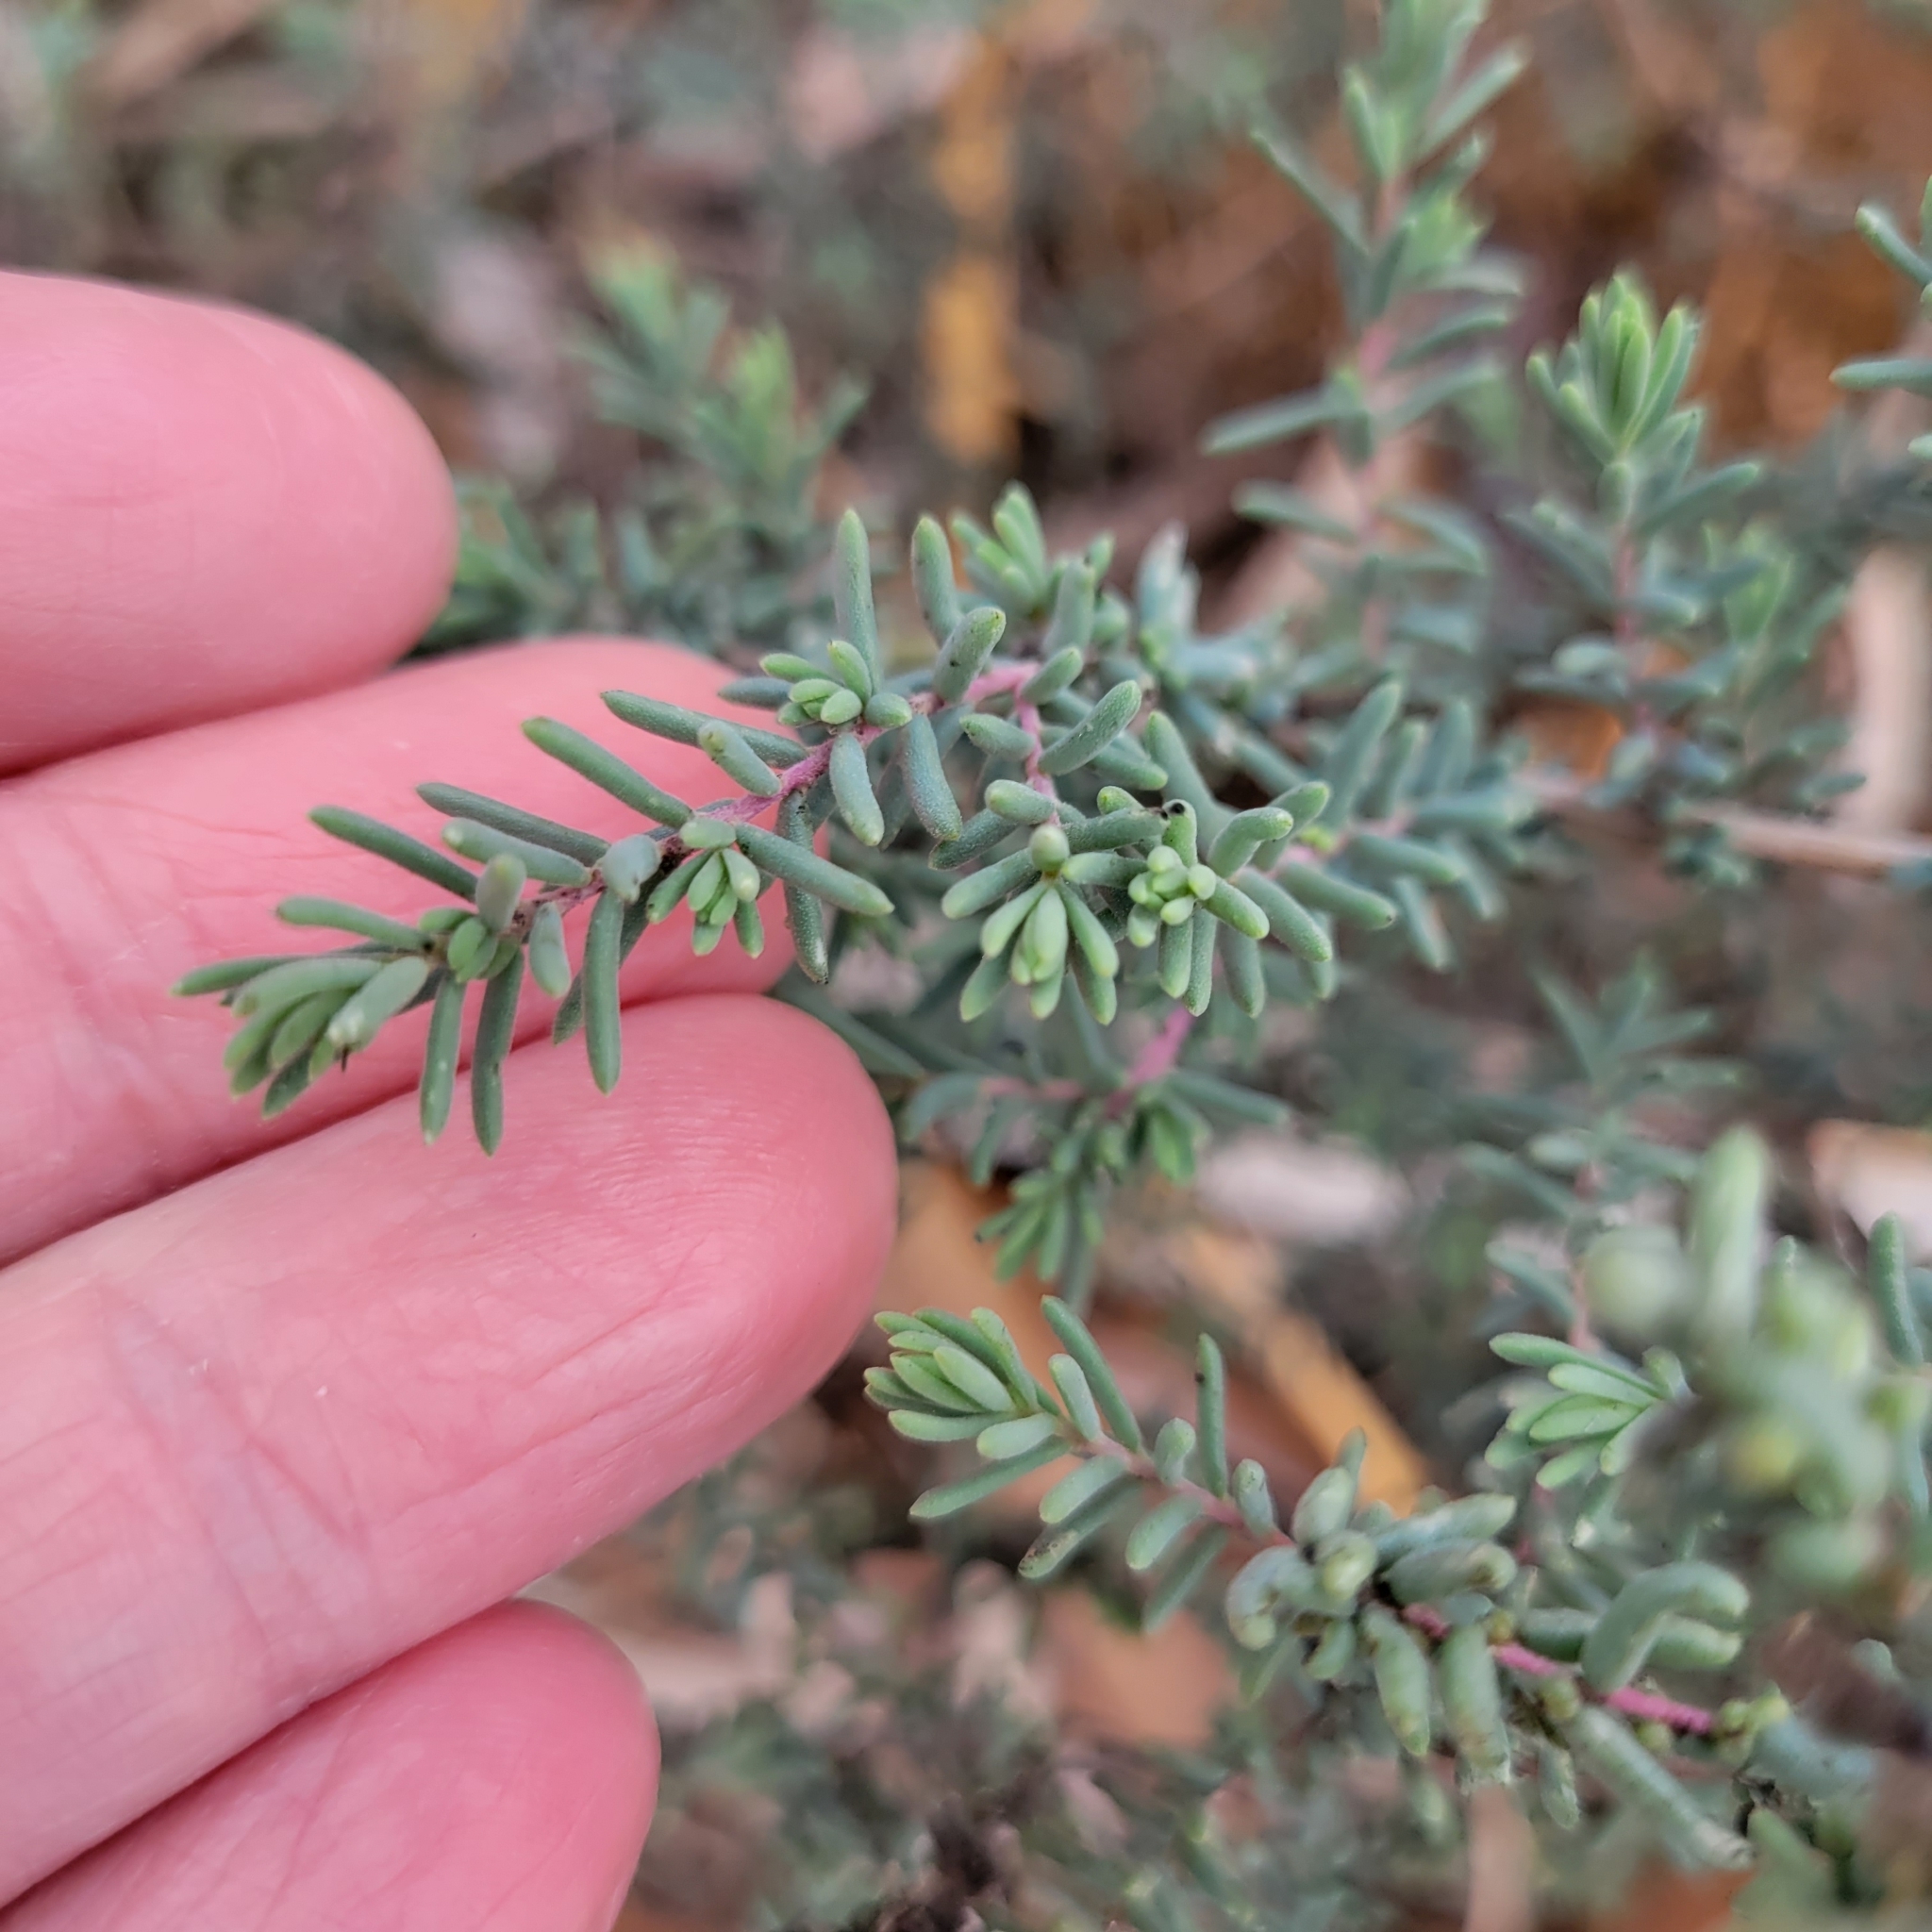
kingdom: Plantae
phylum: Tracheophyta
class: Magnoliopsida
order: Caryophyllales
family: Amaranthaceae
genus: Suaeda
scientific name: Suaeda nigra
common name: Bush seepweed
